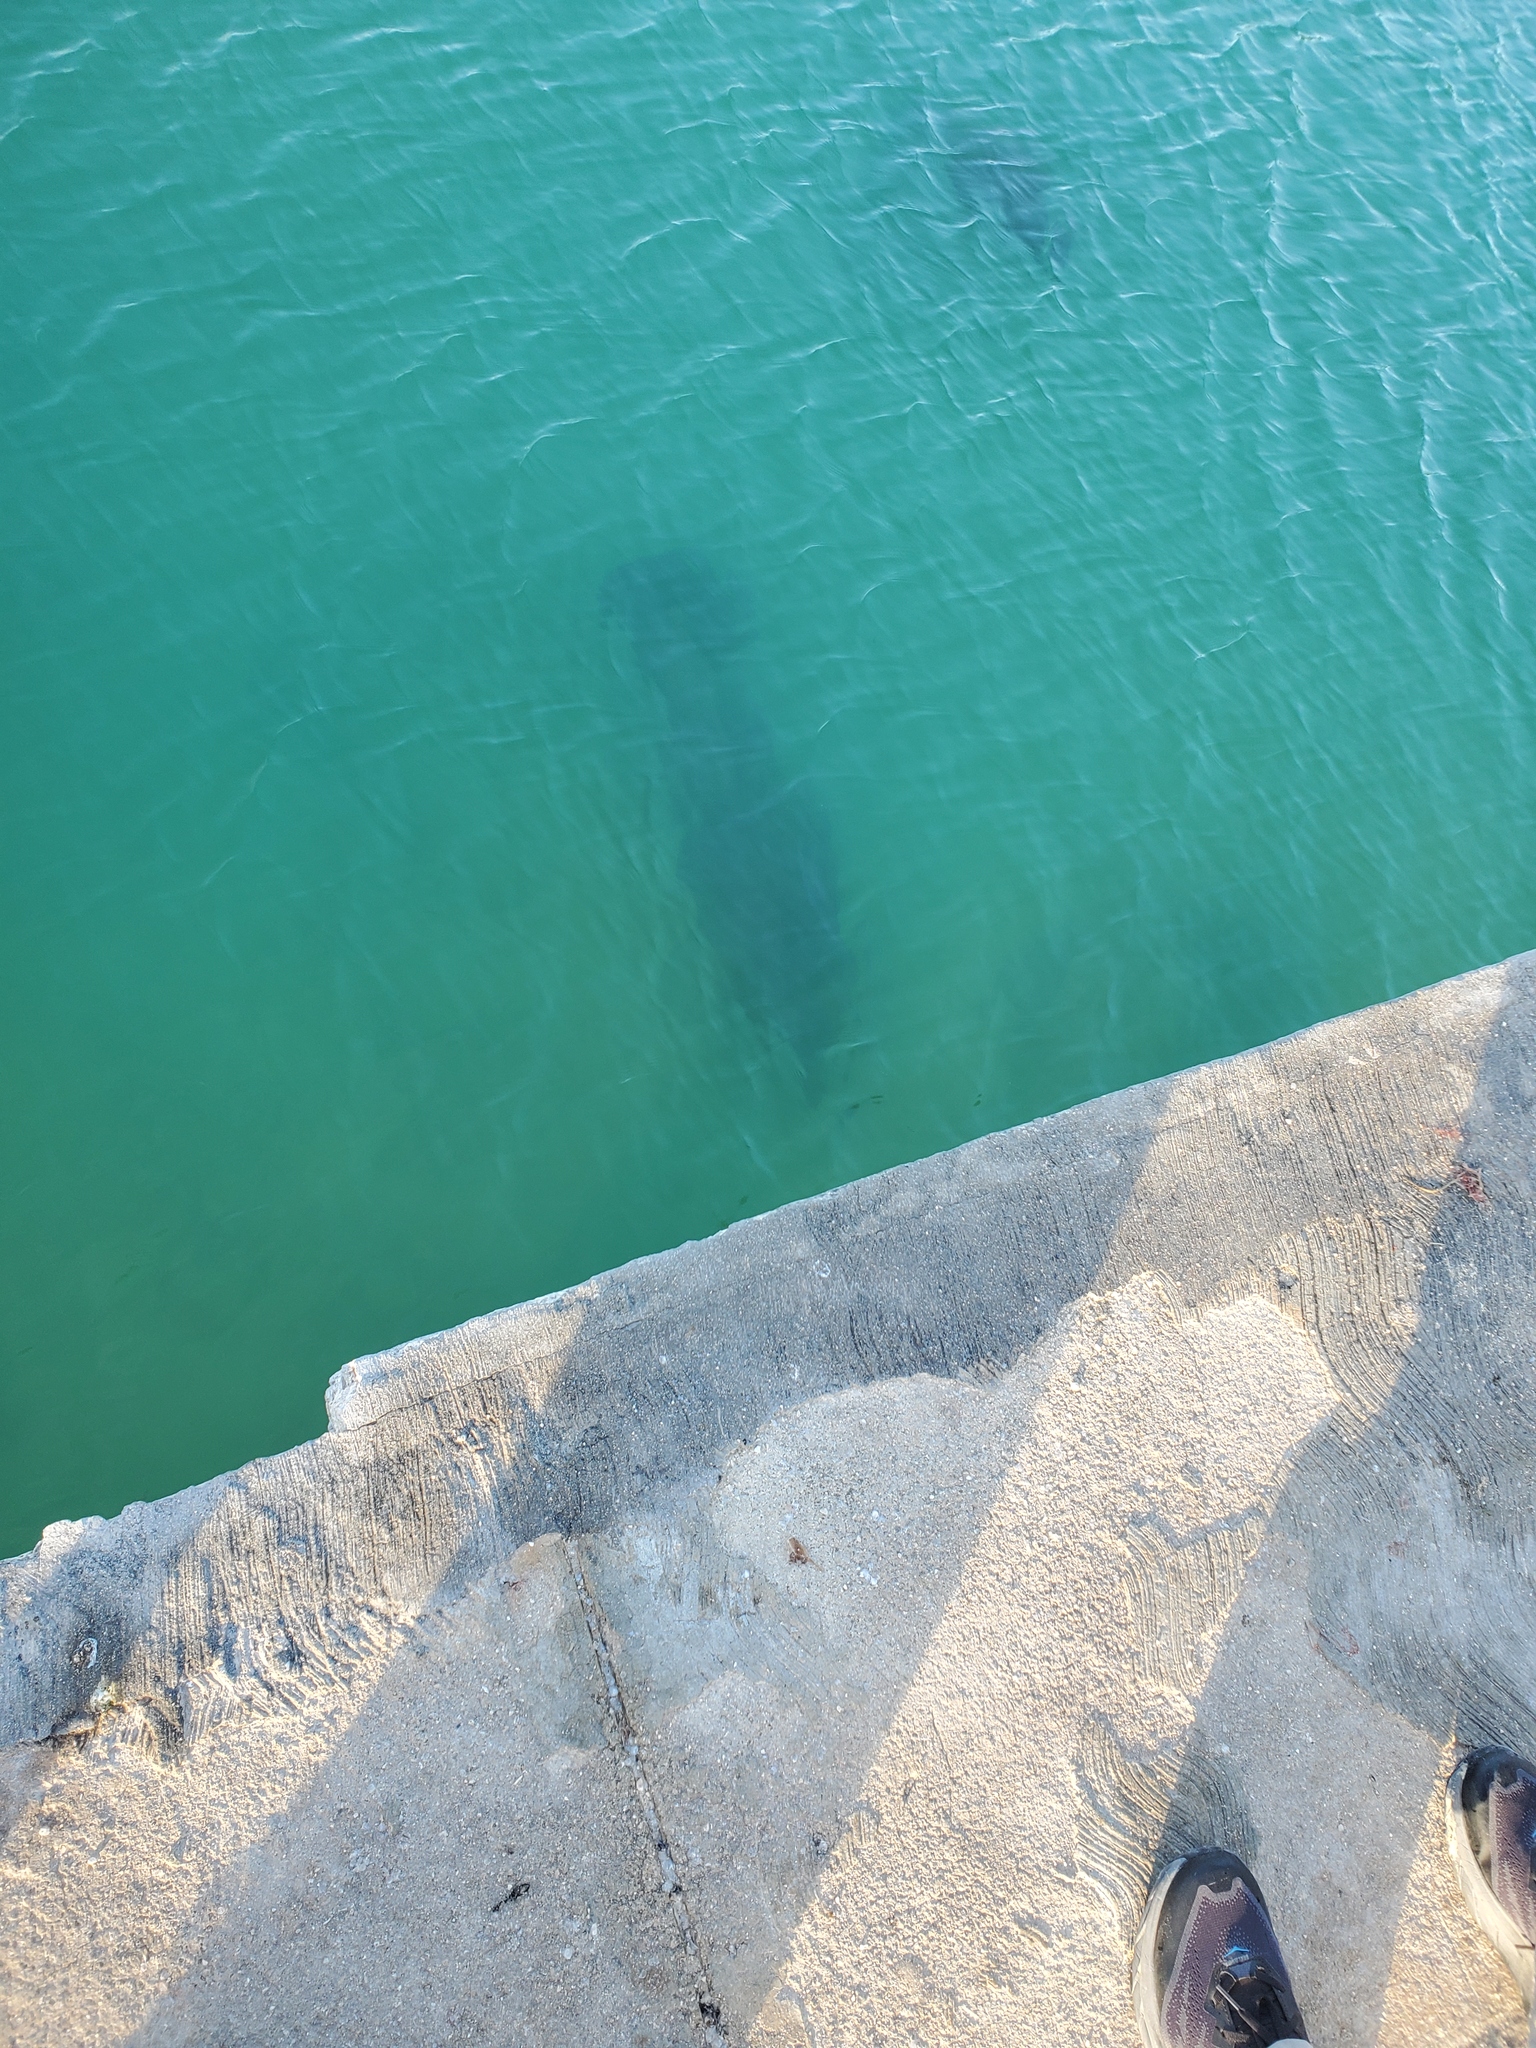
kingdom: Animalia
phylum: Chordata
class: Mammalia
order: Sirenia
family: Trichechidae
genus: Trichechus
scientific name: Trichechus manatus
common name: West indian manatee
